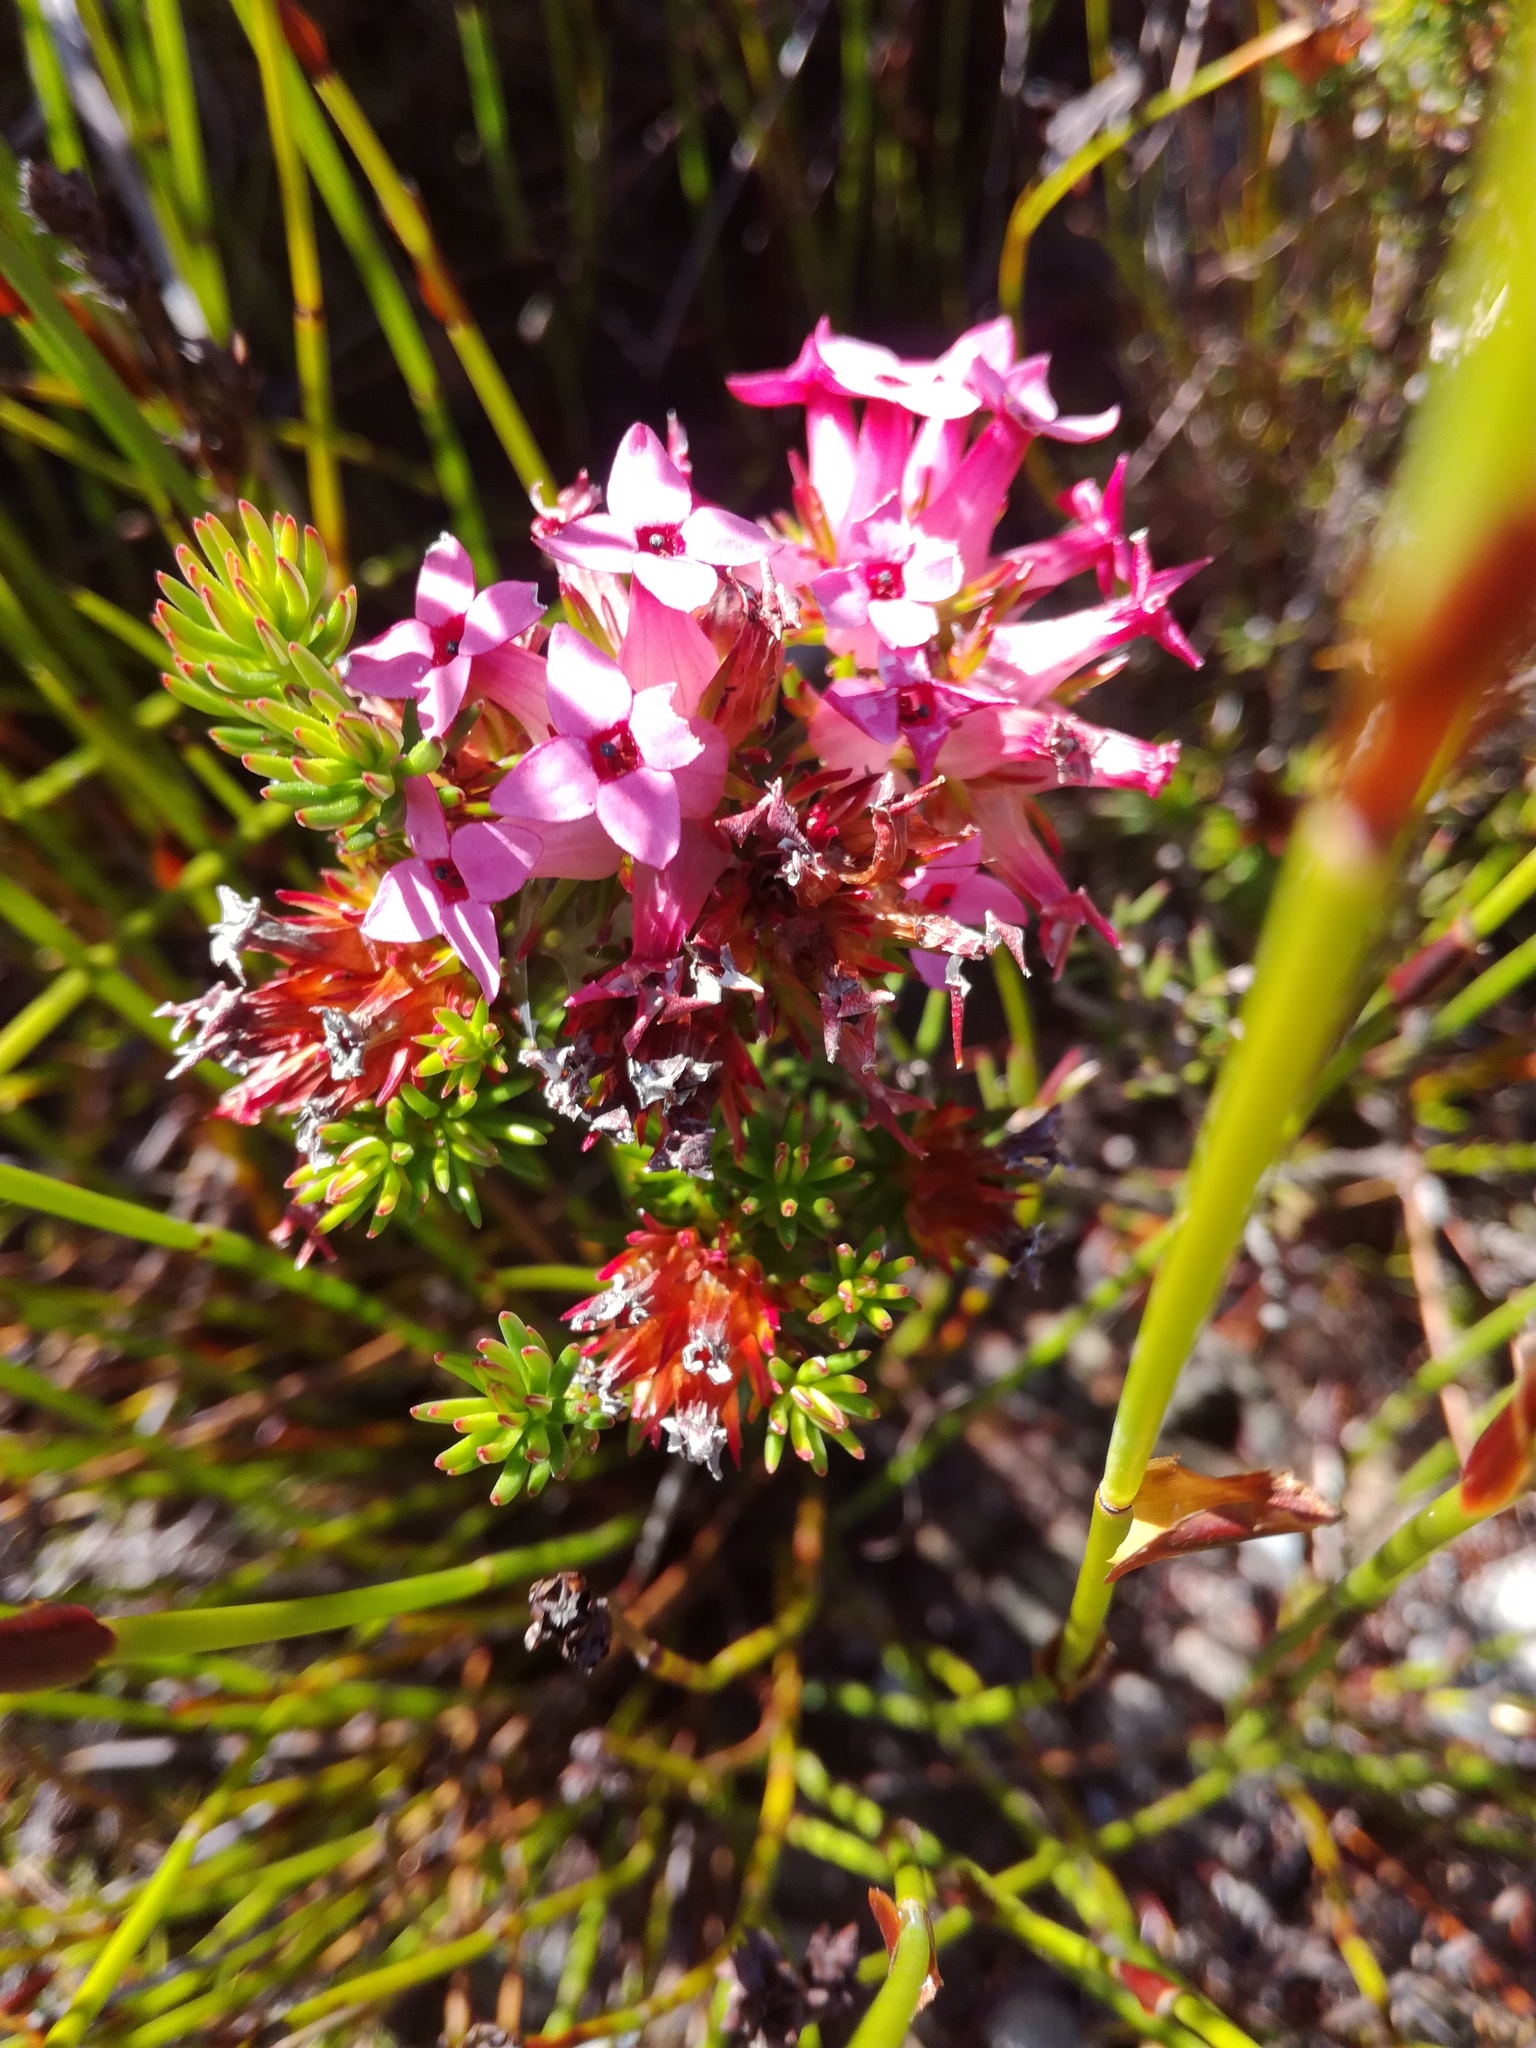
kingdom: Plantae
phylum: Tracheophyta
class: Magnoliopsida
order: Ericales
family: Ericaceae
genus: Erica
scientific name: Erica fastigiata
